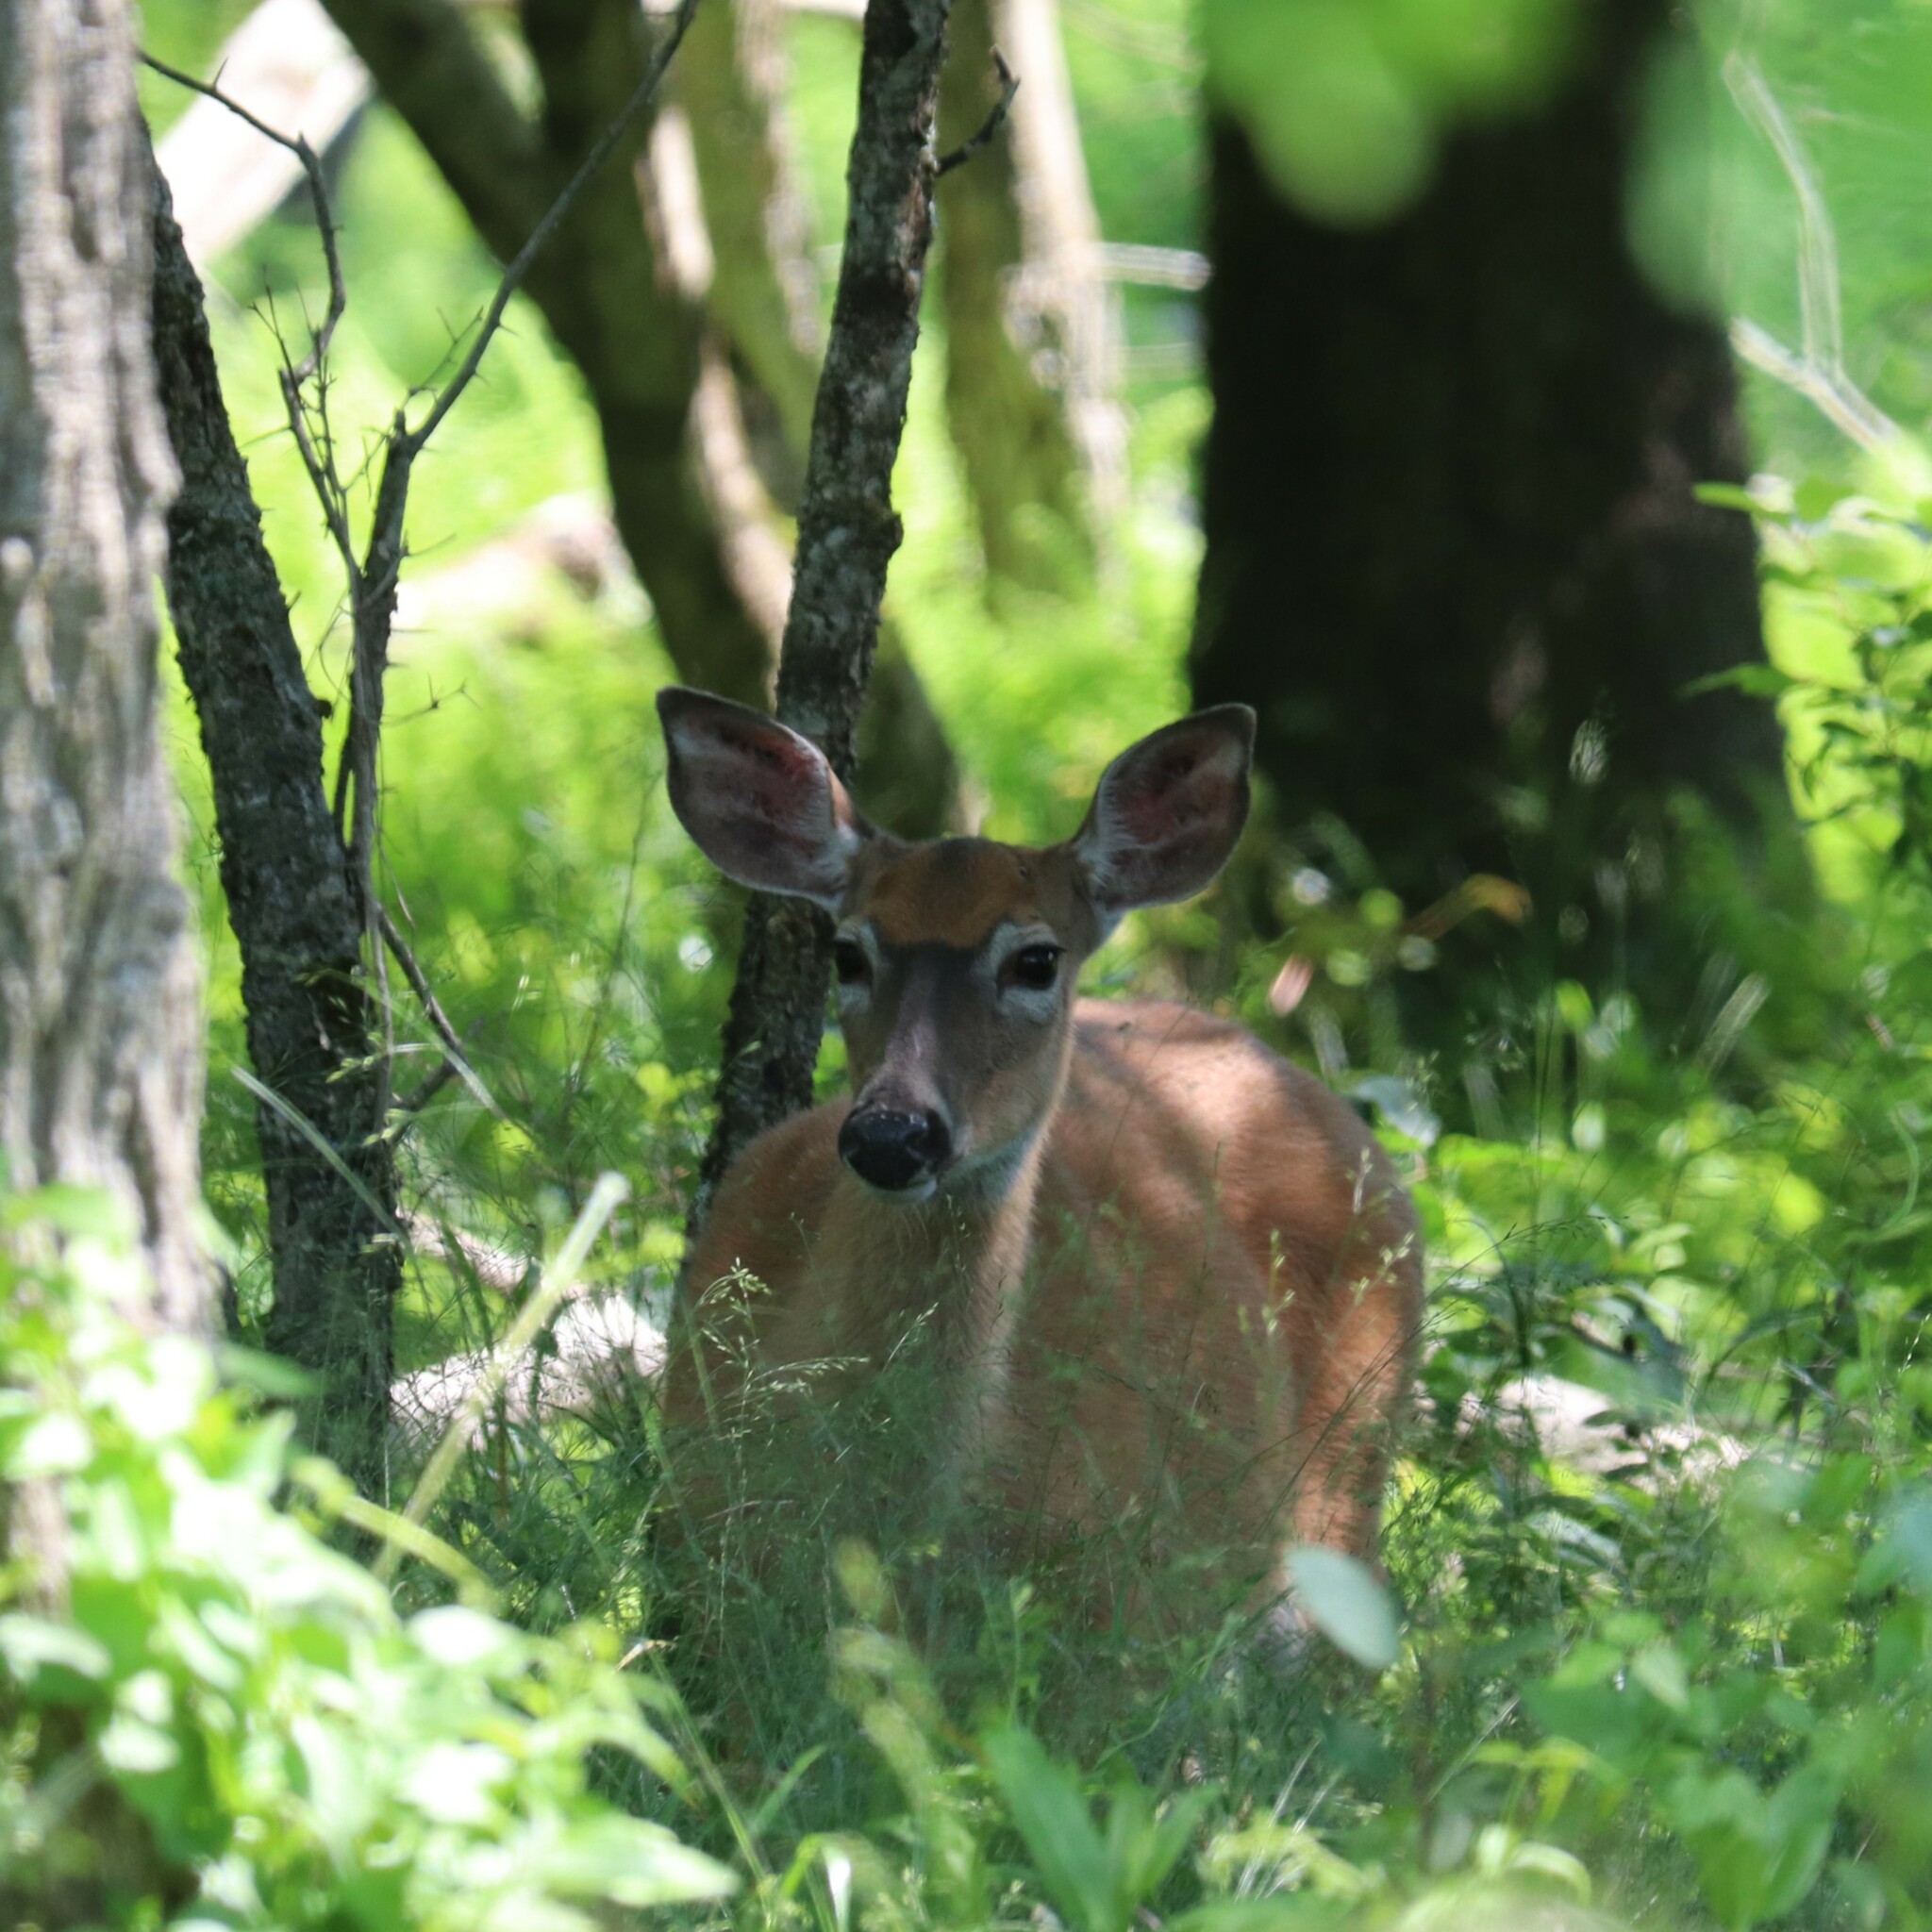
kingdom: Animalia
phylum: Chordata
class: Mammalia
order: Artiodactyla
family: Cervidae
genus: Odocoileus
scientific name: Odocoileus virginianus
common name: White-tailed deer
